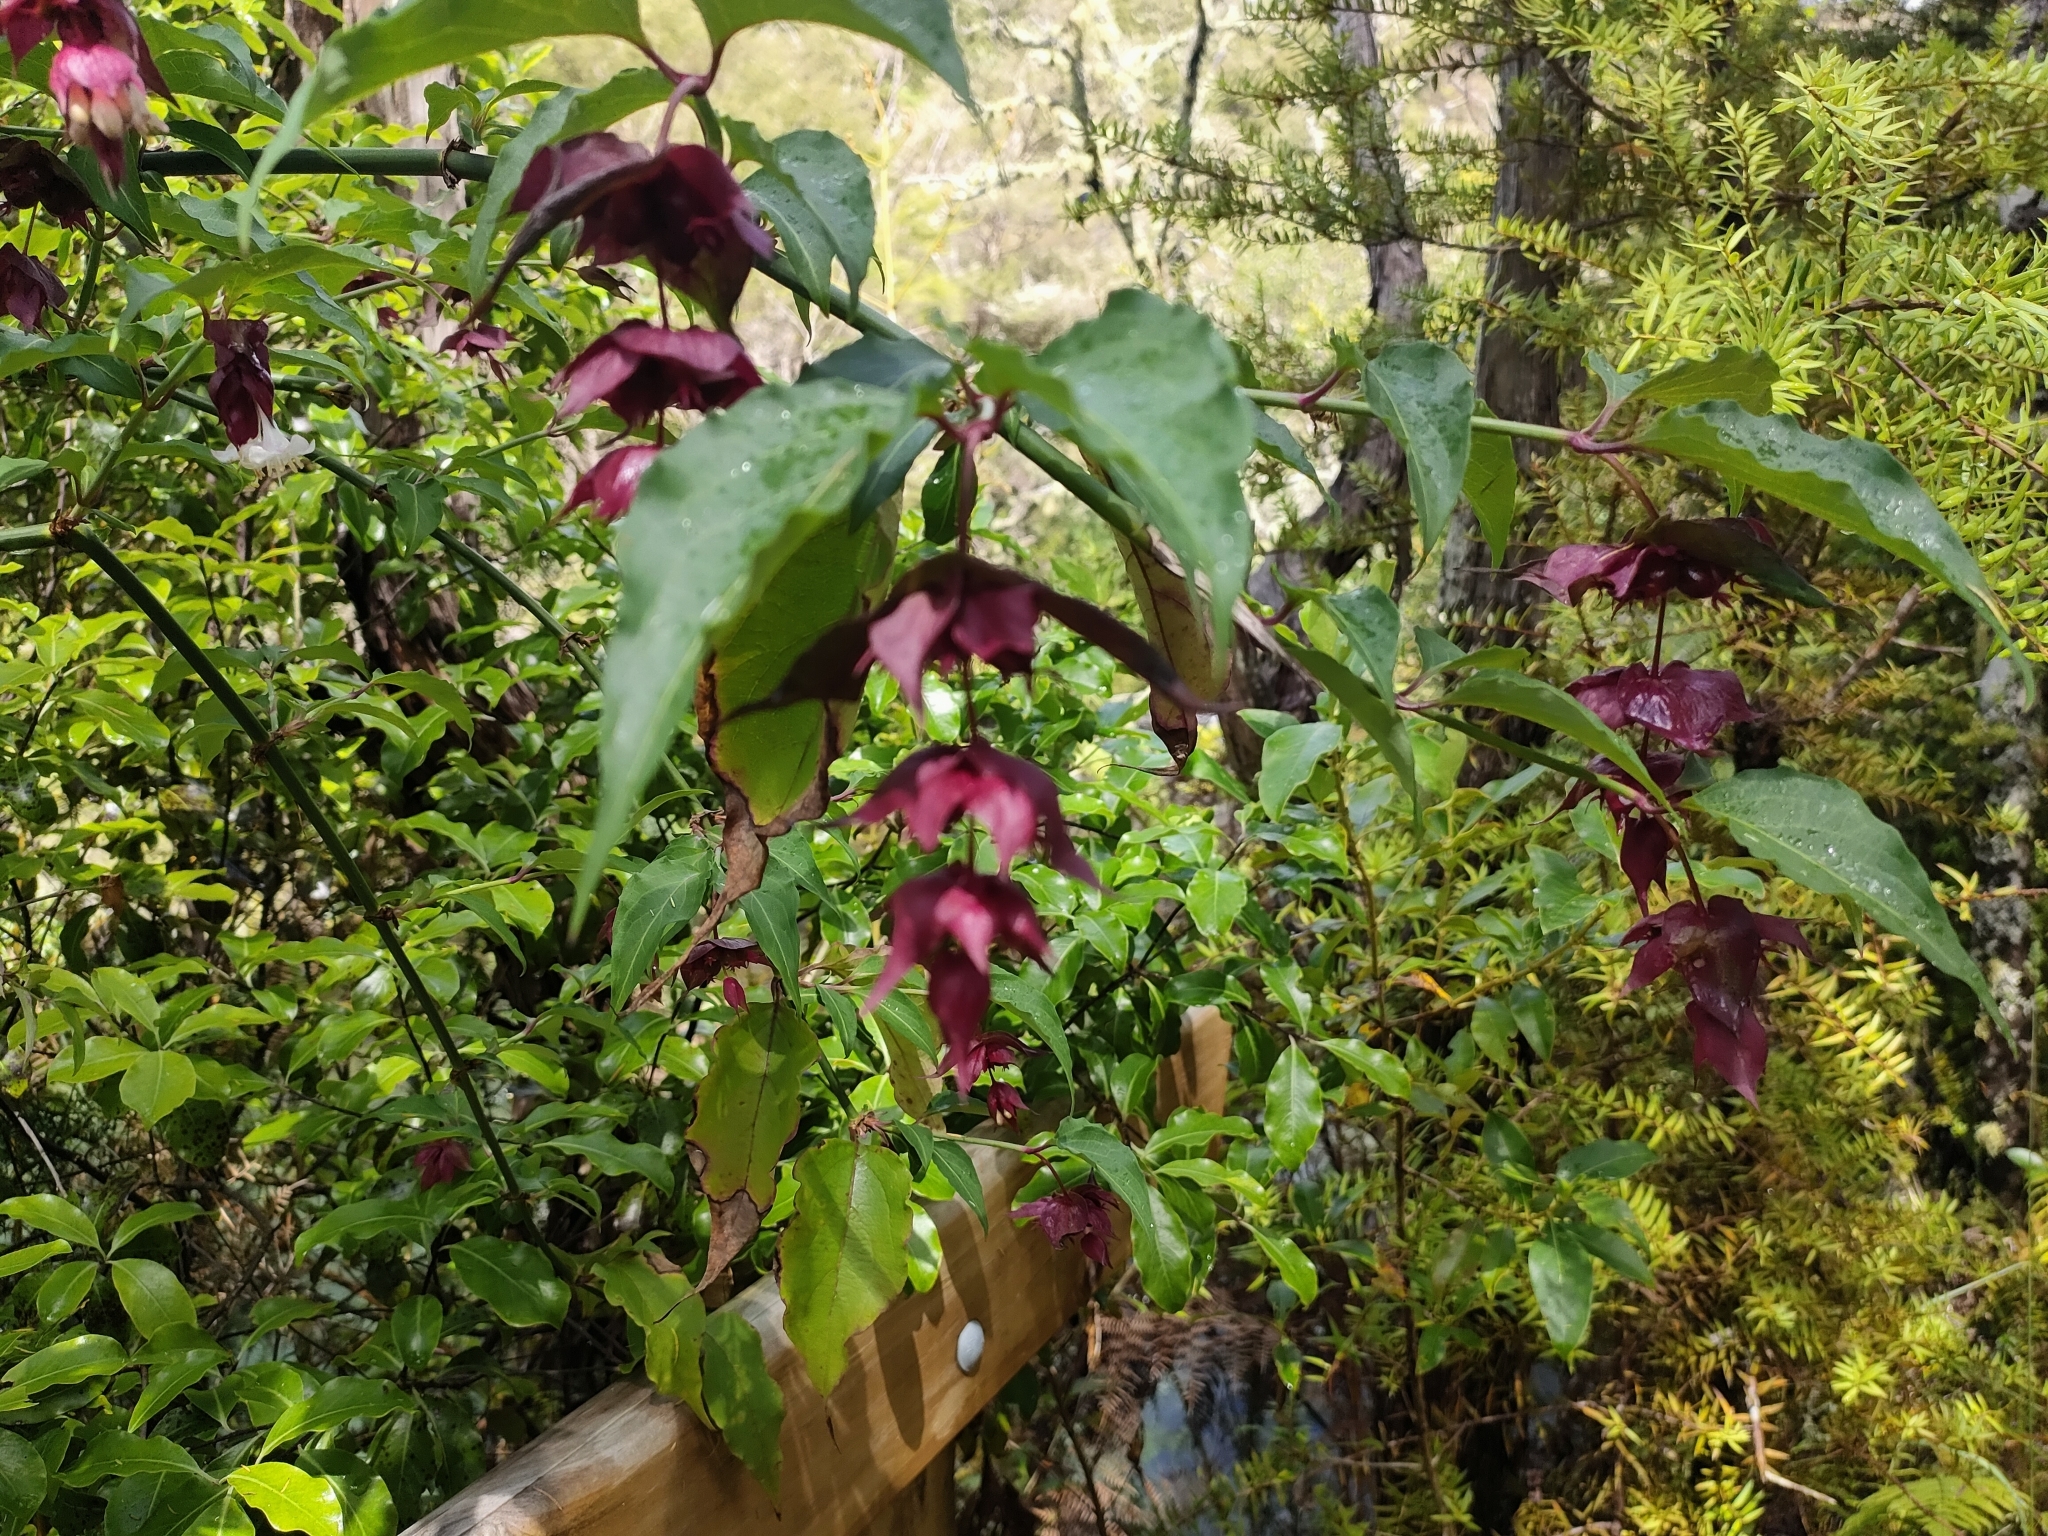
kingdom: Plantae
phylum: Tracheophyta
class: Magnoliopsida
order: Dipsacales
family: Caprifoliaceae
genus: Leycesteria
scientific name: Leycesteria formosa
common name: Himalayan honeysuckle
